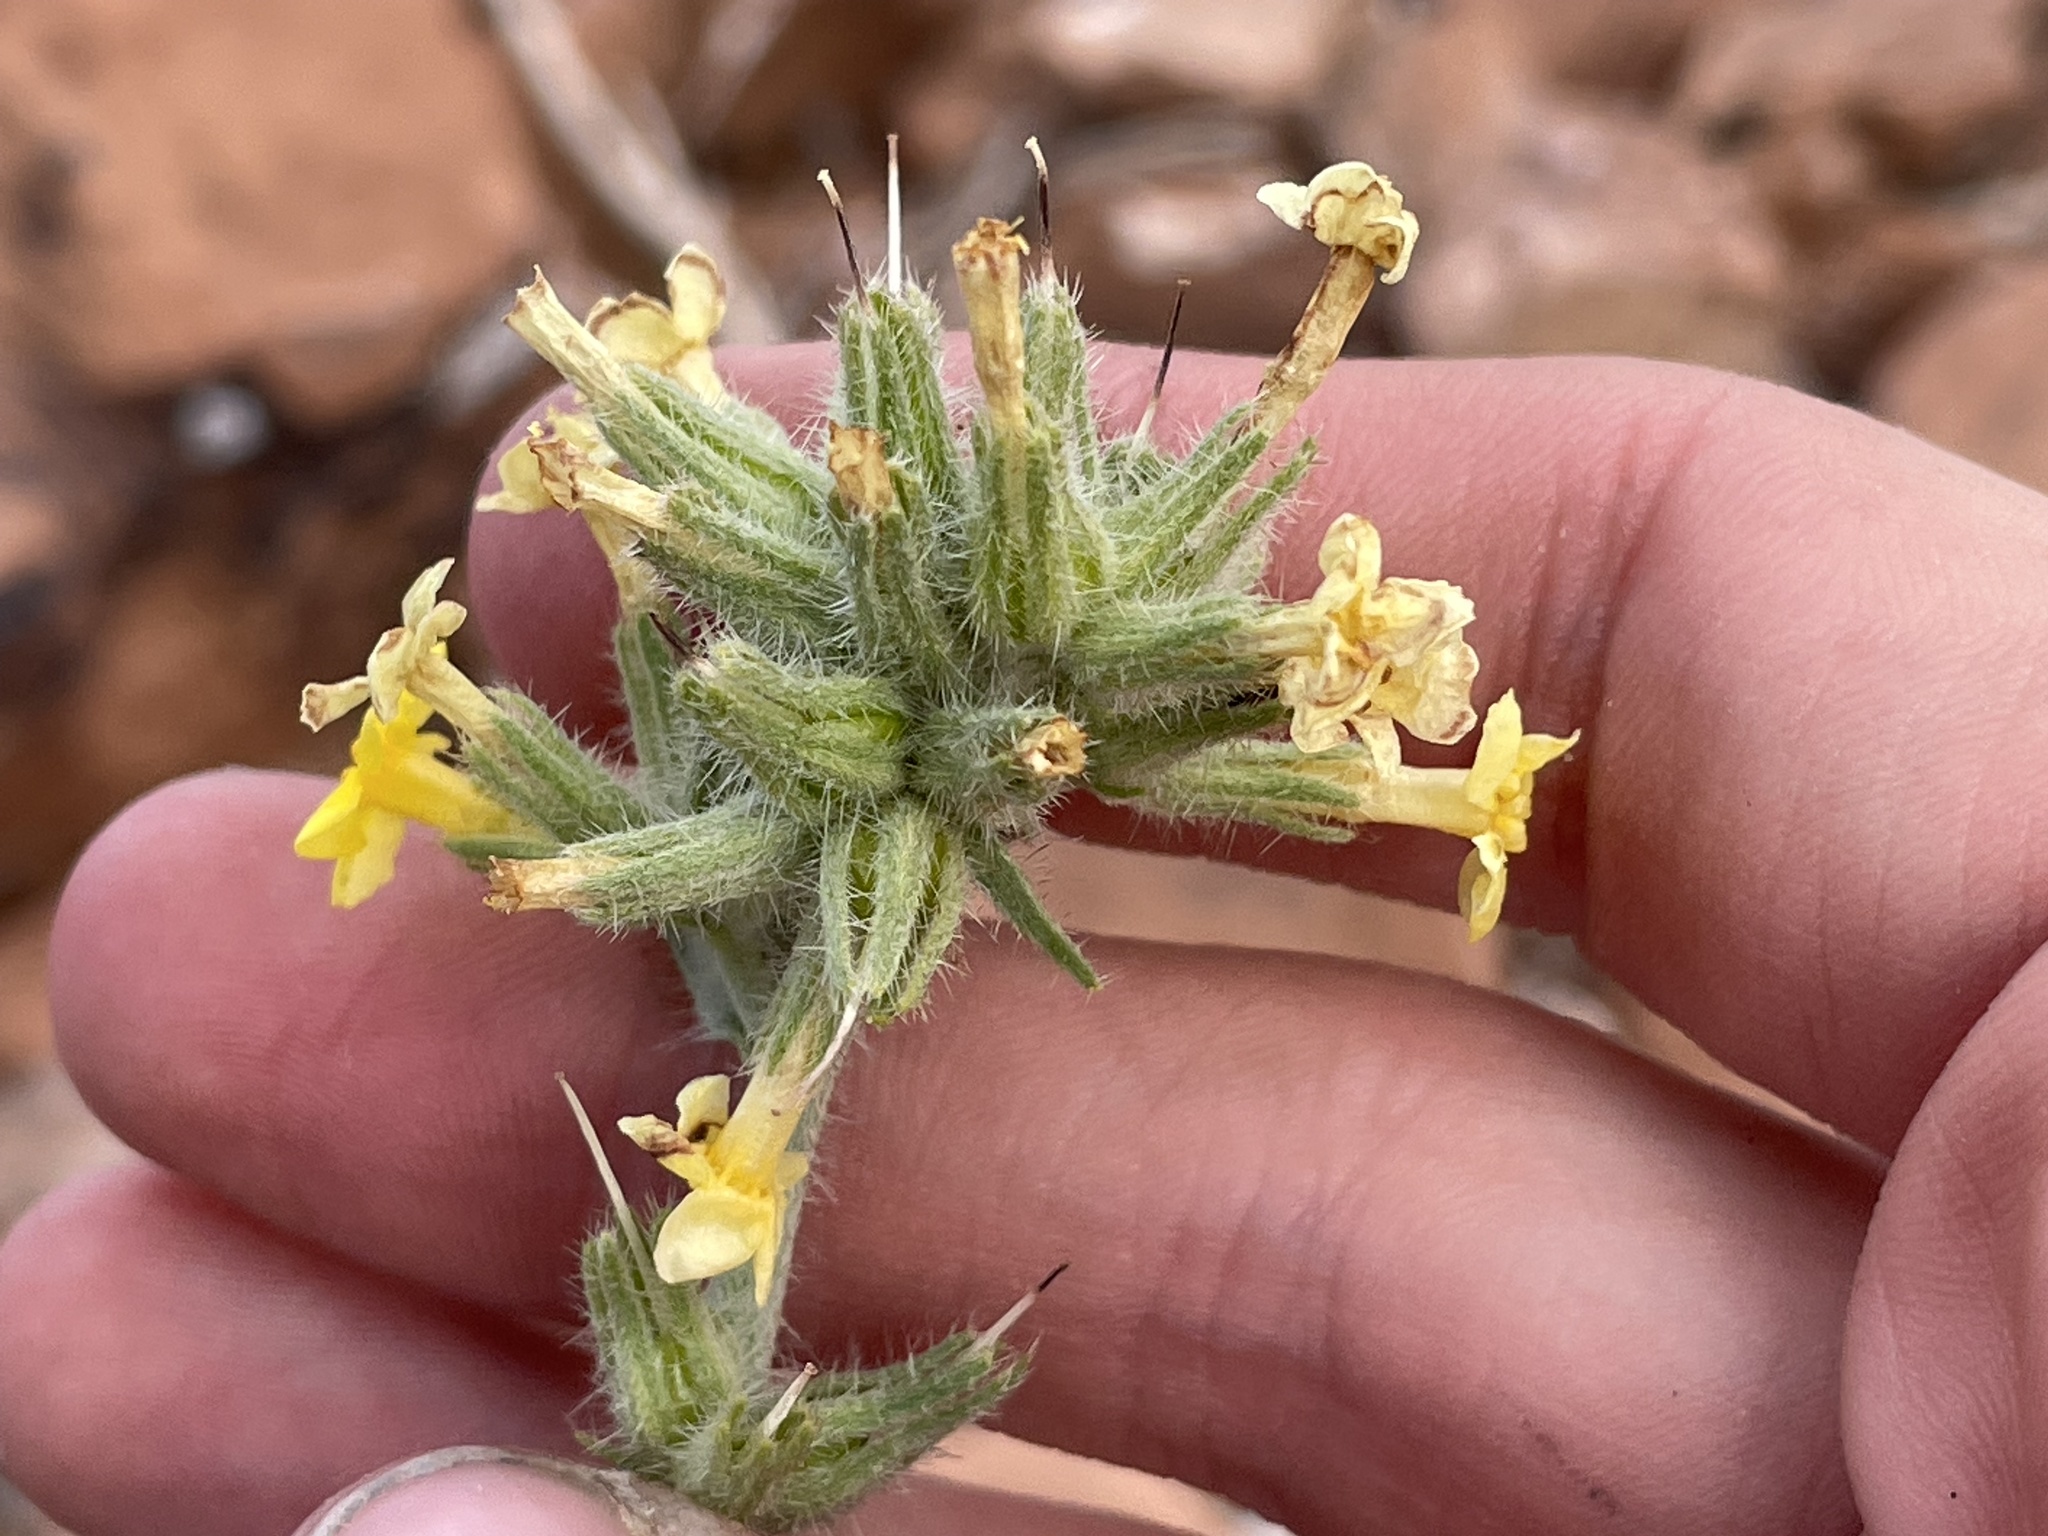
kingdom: Plantae
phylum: Tracheophyta
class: Magnoliopsida
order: Boraginales
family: Boraginaceae
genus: Oreocarya
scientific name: Oreocarya confertiflora
